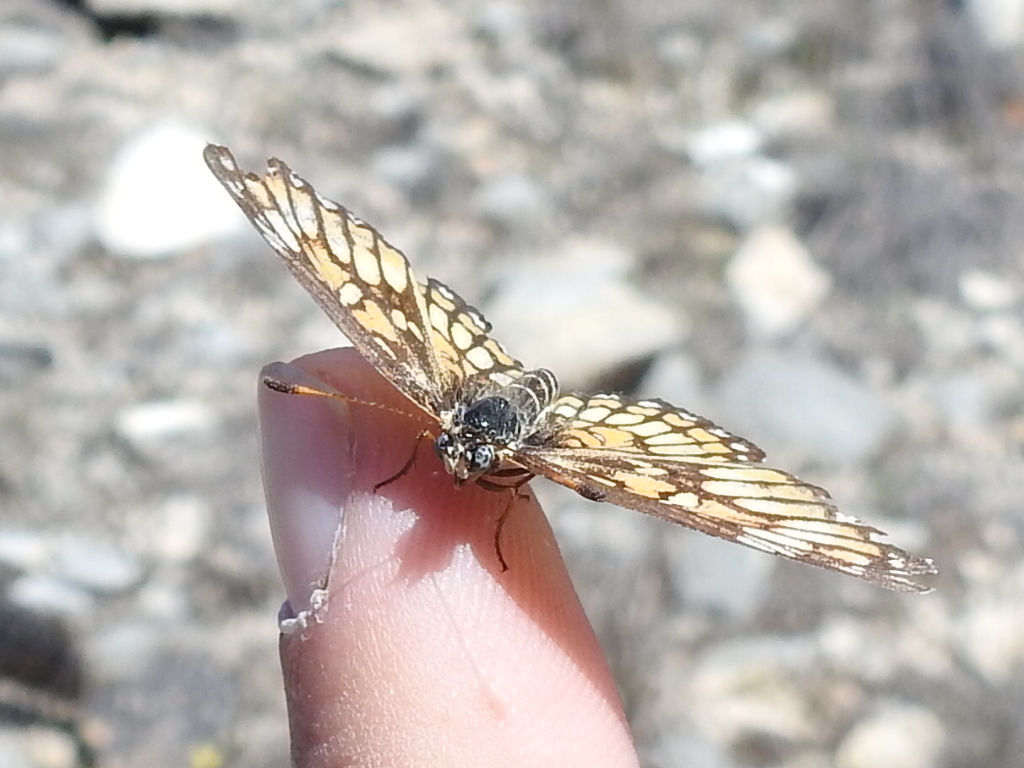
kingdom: Animalia
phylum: Arthropoda
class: Insecta
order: Lepidoptera
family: Nymphalidae
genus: Thessalia
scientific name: Thessalia theona
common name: Nymphalid moth
